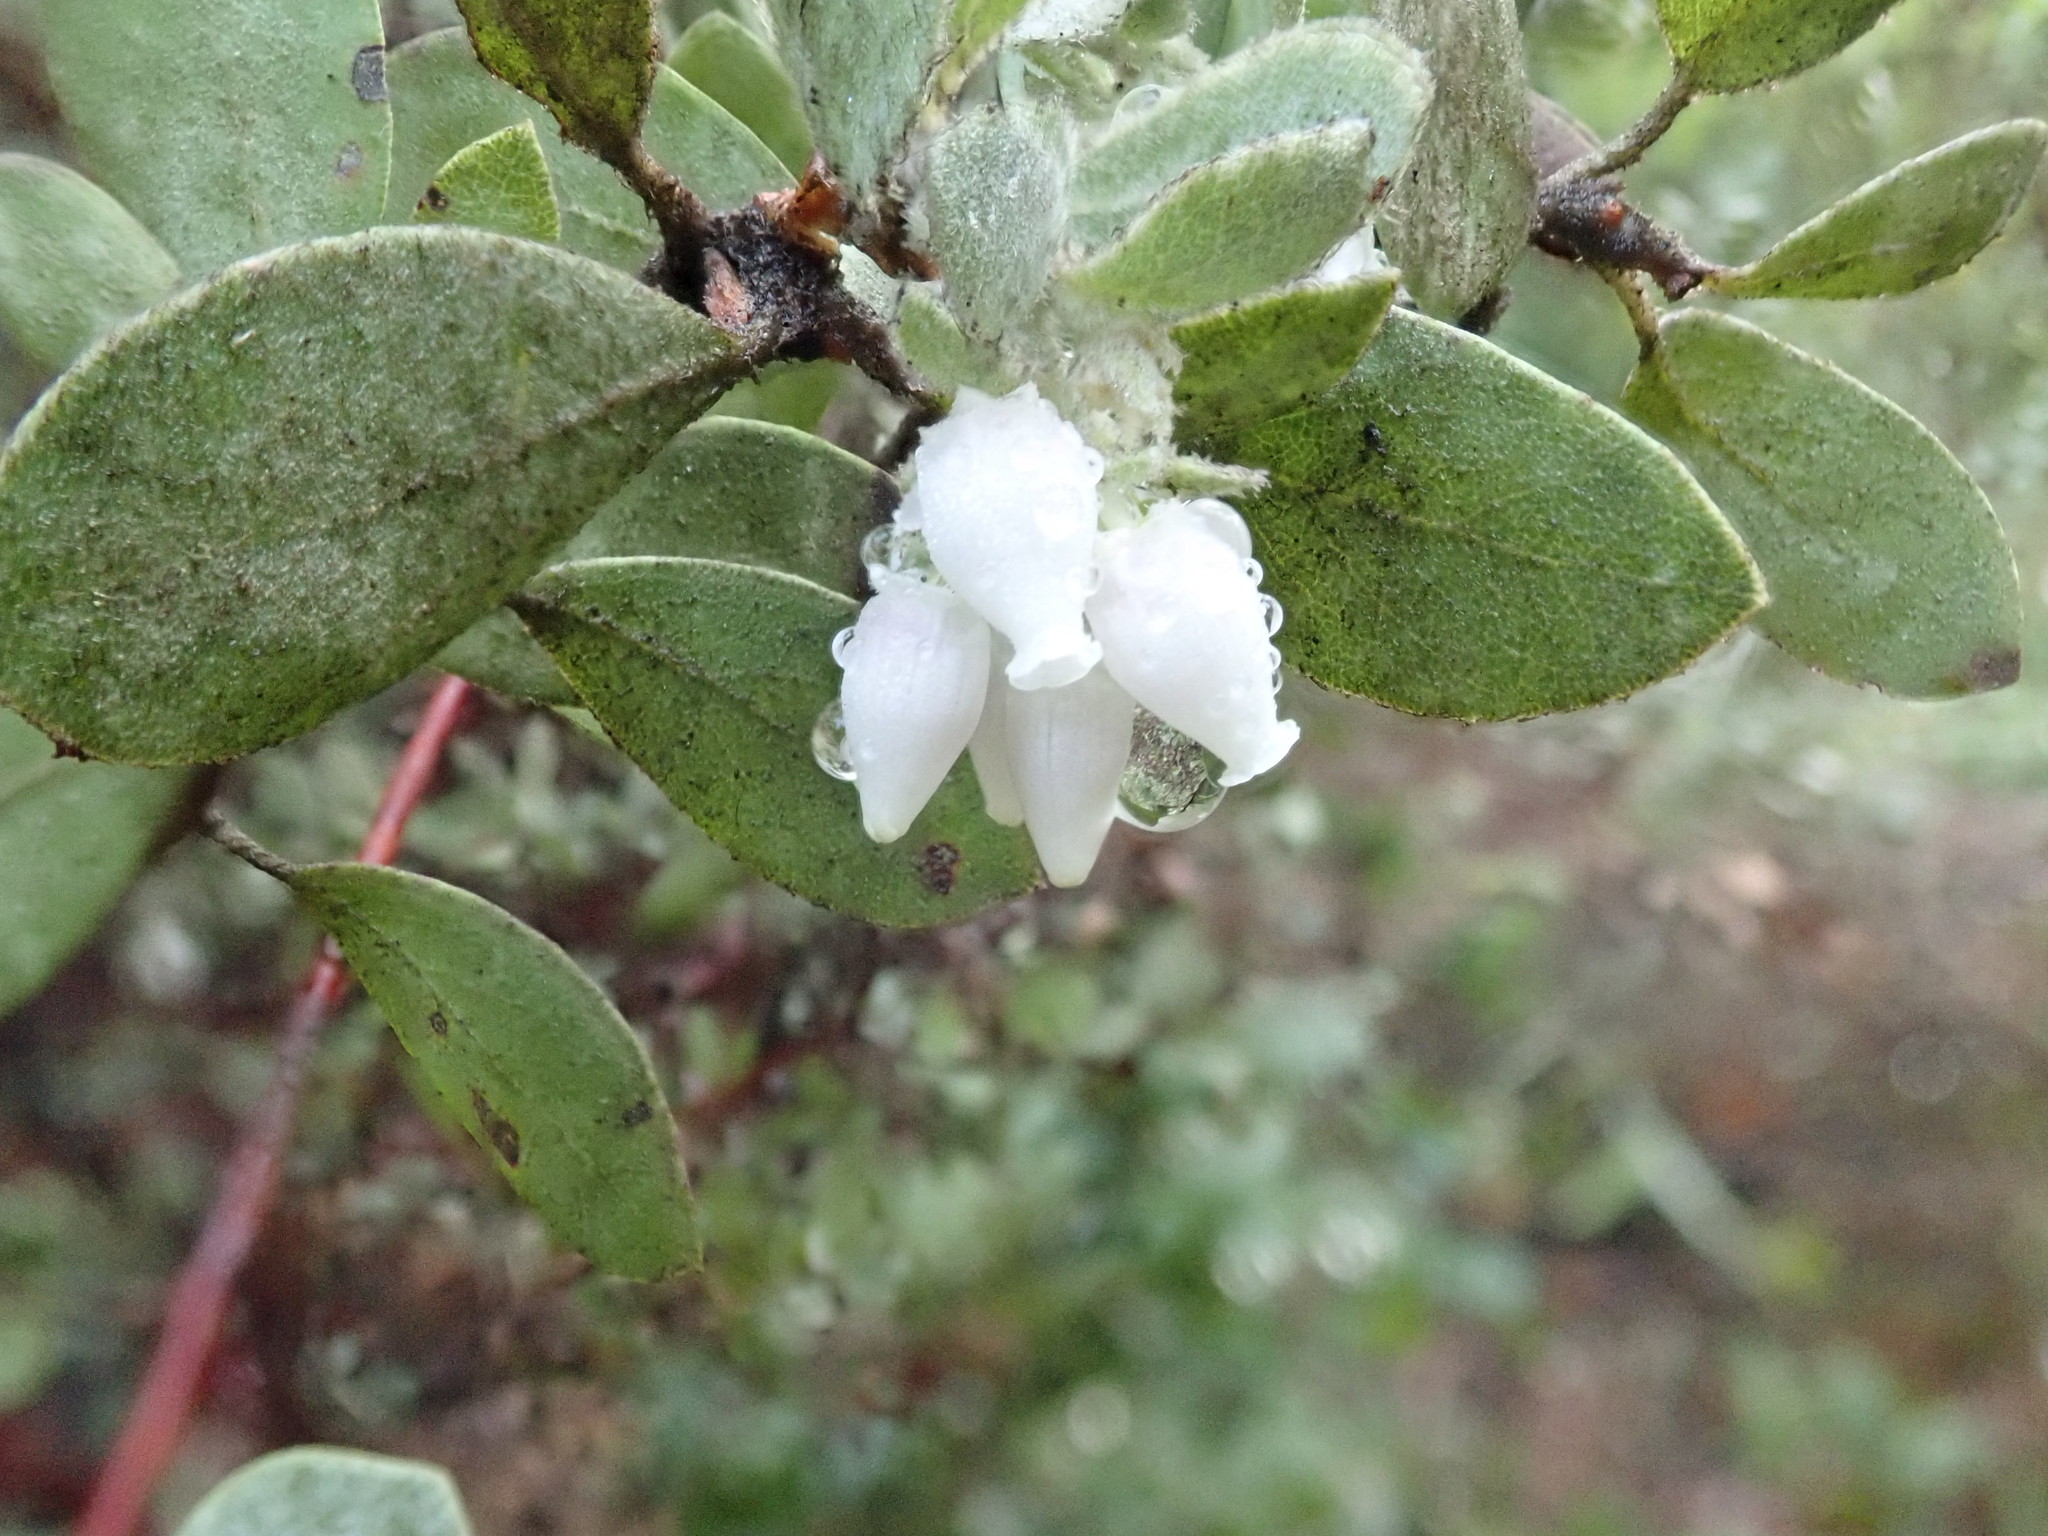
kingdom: Plantae
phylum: Tracheophyta
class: Magnoliopsida
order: Ericales
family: Ericaceae
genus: Arctostaphylos
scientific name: Arctostaphylos silvicola
